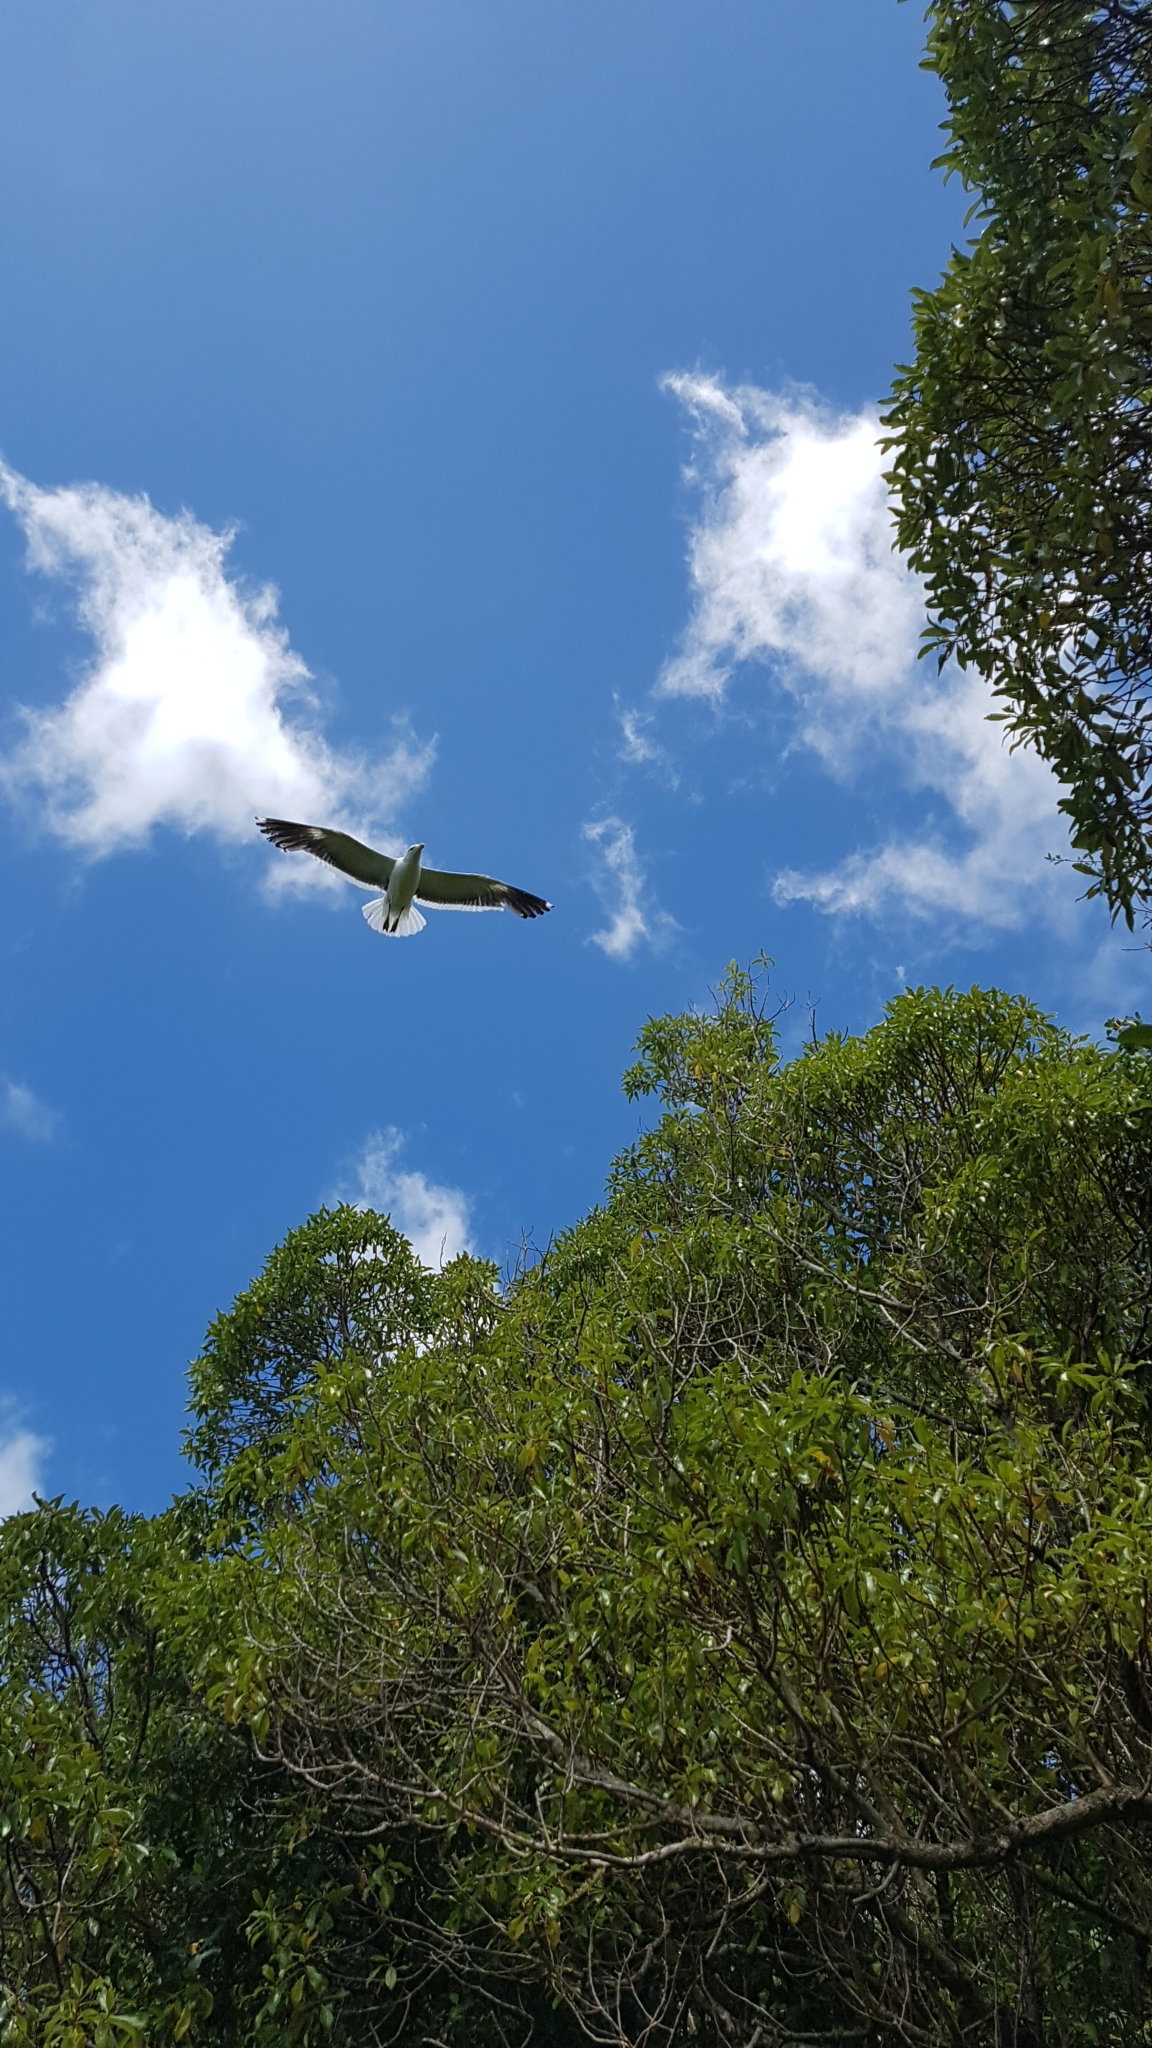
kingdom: Animalia
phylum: Chordata
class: Aves
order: Charadriiformes
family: Laridae
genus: Larus
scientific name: Larus dominicanus
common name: Kelp gull
